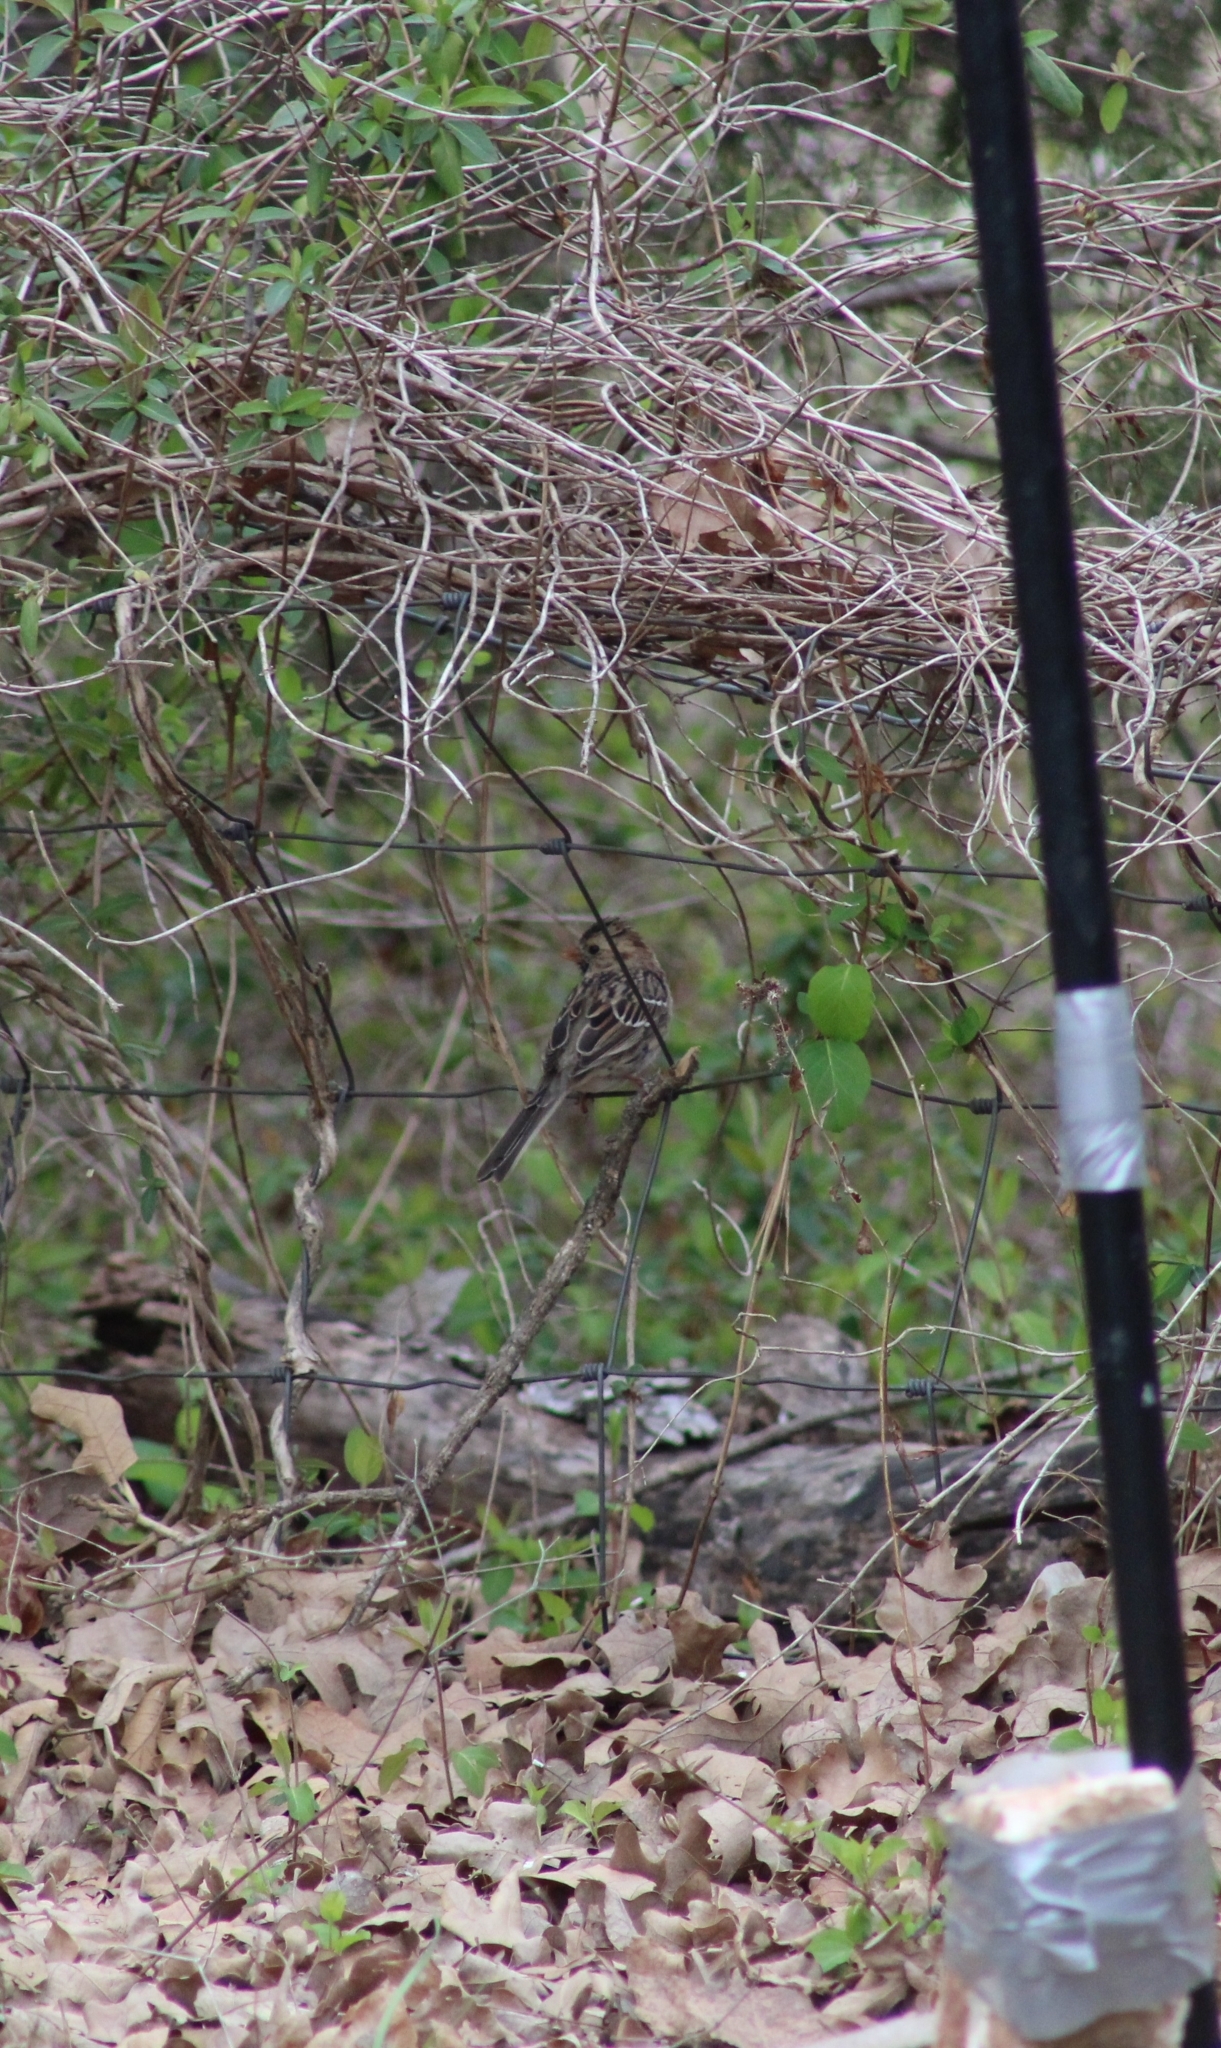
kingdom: Animalia
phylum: Chordata
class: Aves
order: Passeriformes
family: Passerellidae
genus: Zonotrichia
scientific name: Zonotrichia querula
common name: Harris's sparrow
